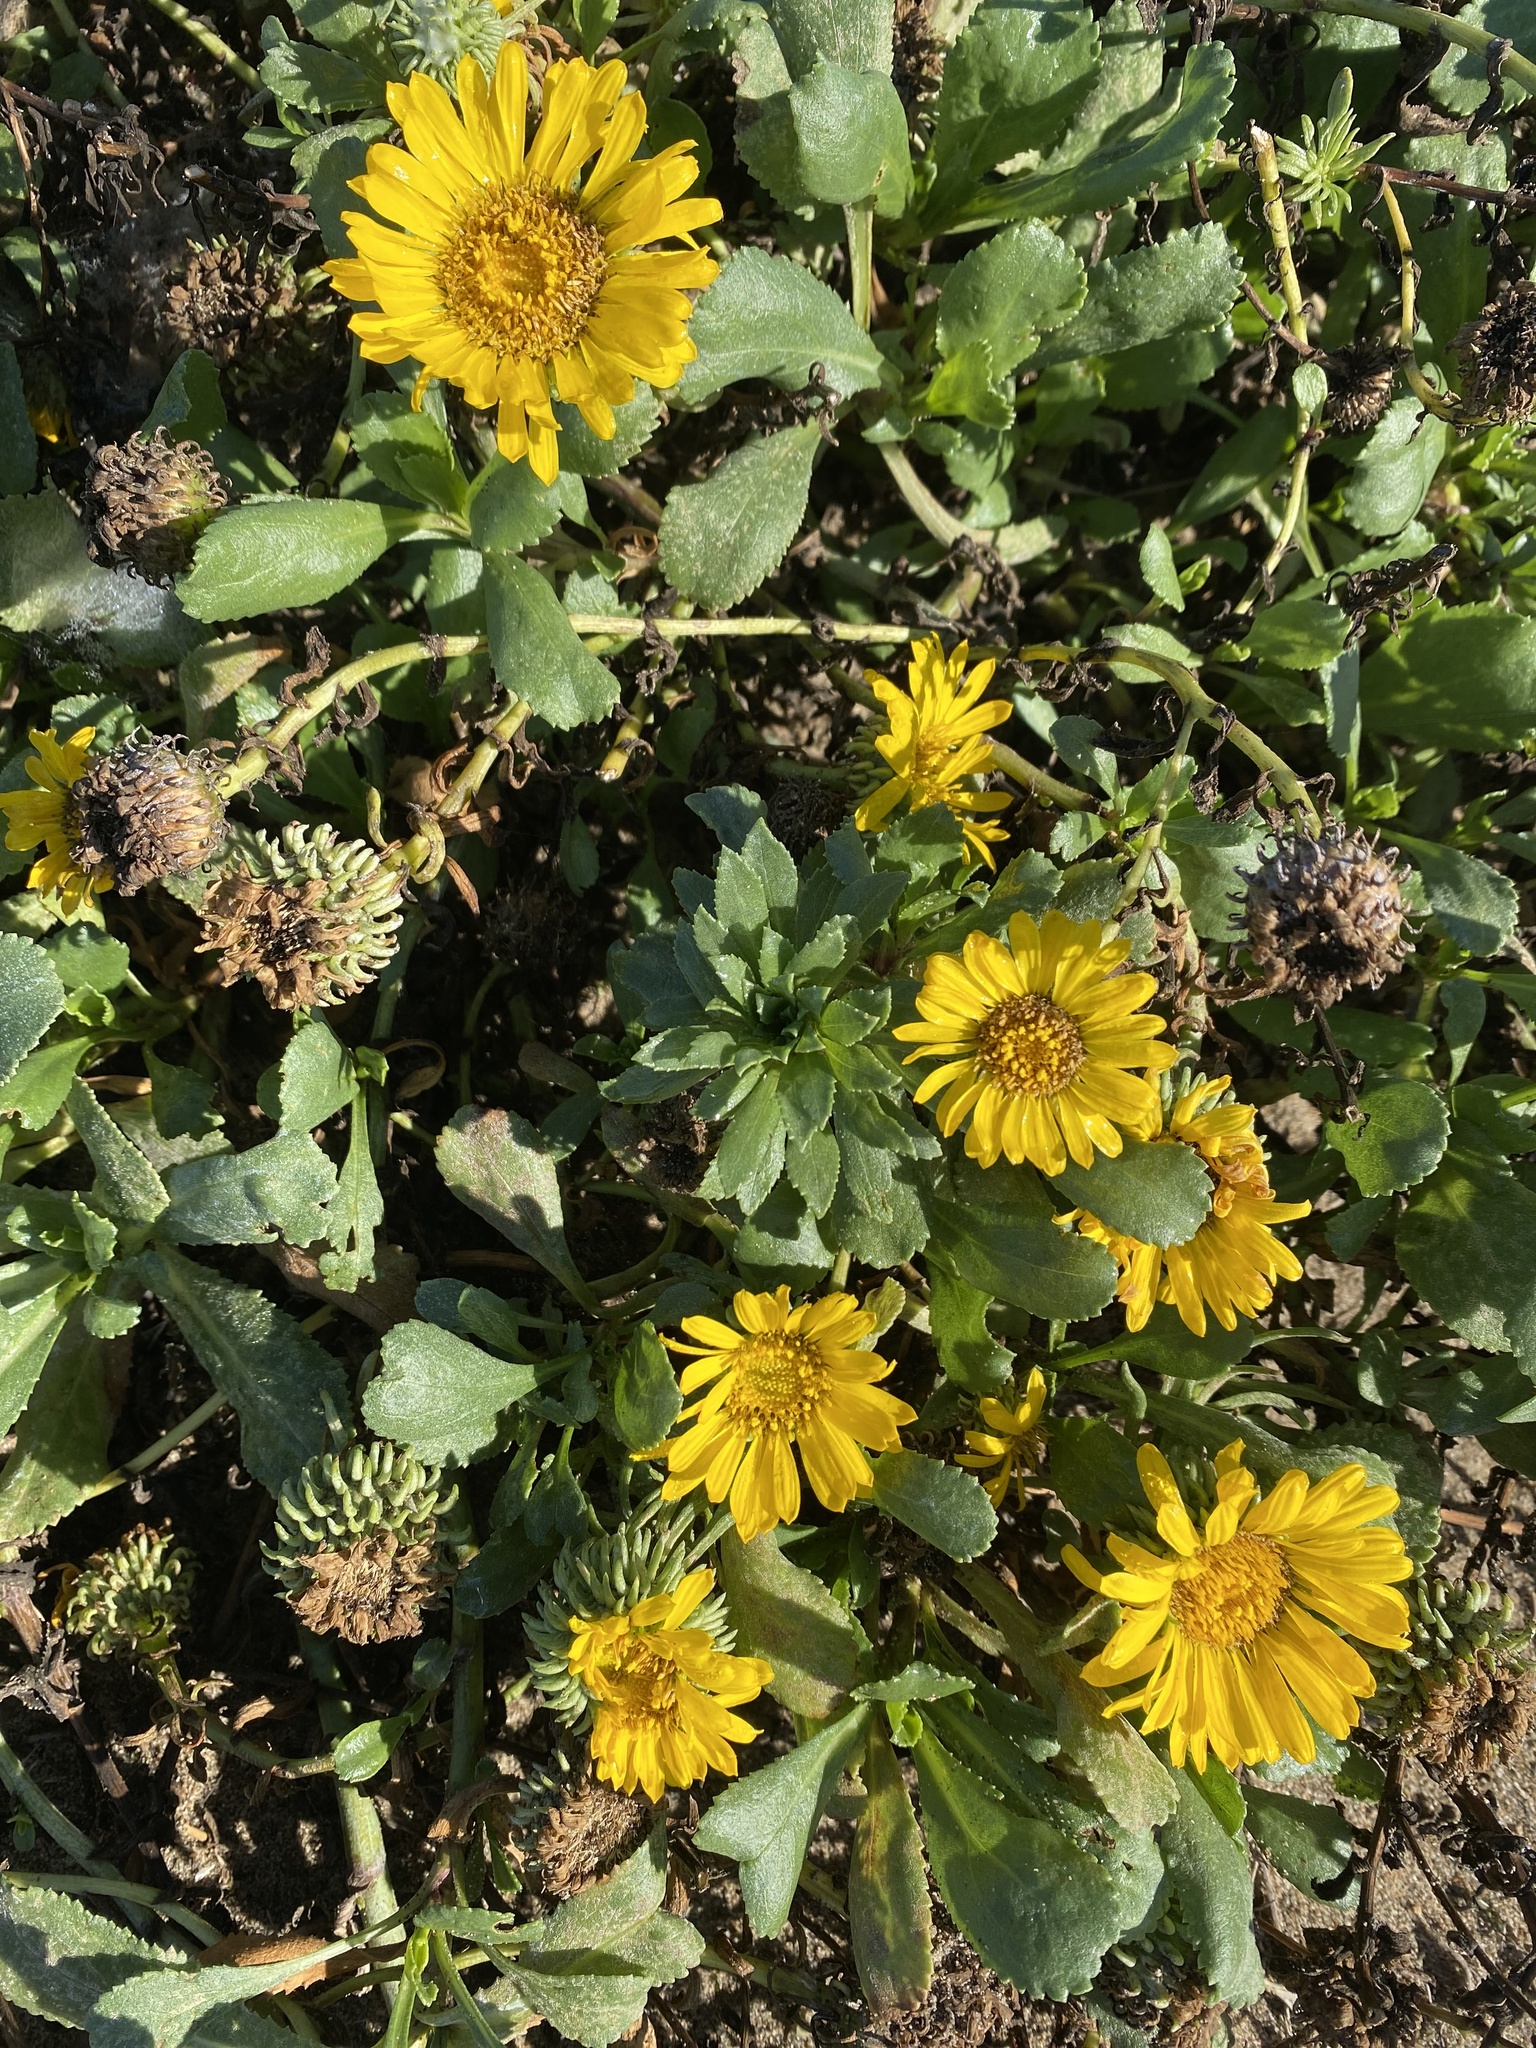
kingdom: Plantae
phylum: Tracheophyta
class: Magnoliopsida
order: Asterales
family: Asteraceae
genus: Grindelia
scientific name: Grindelia hirsutula
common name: Hairy gumweed
